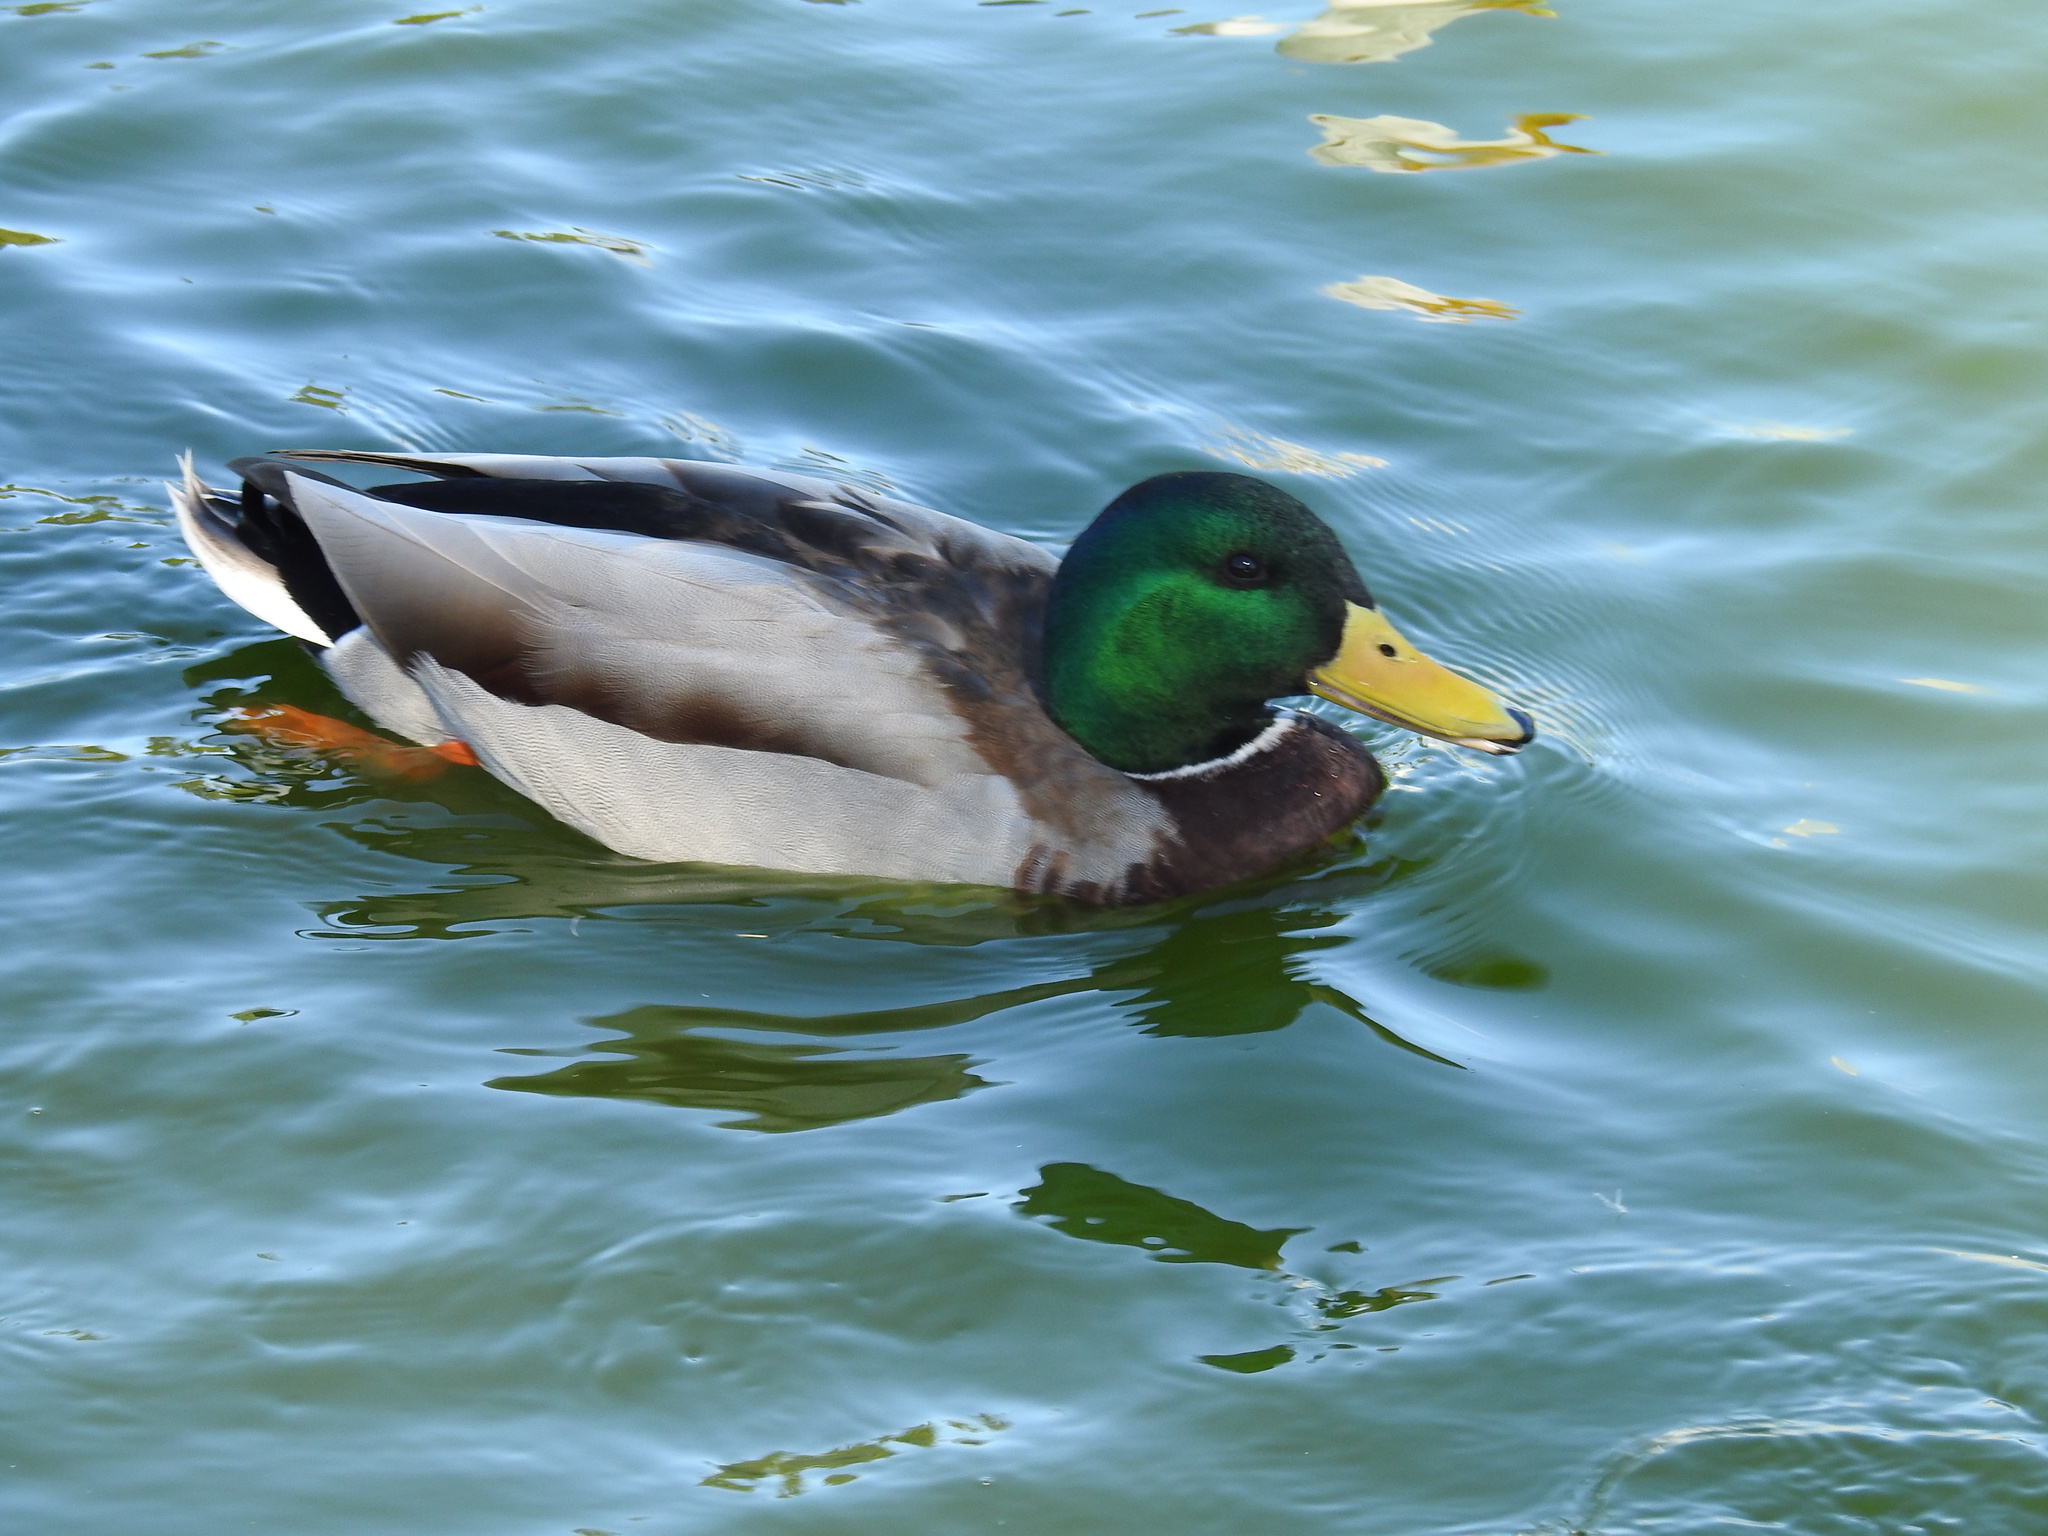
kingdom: Animalia
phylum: Chordata
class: Aves
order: Anseriformes
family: Anatidae
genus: Anas
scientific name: Anas platyrhynchos
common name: Mallard
